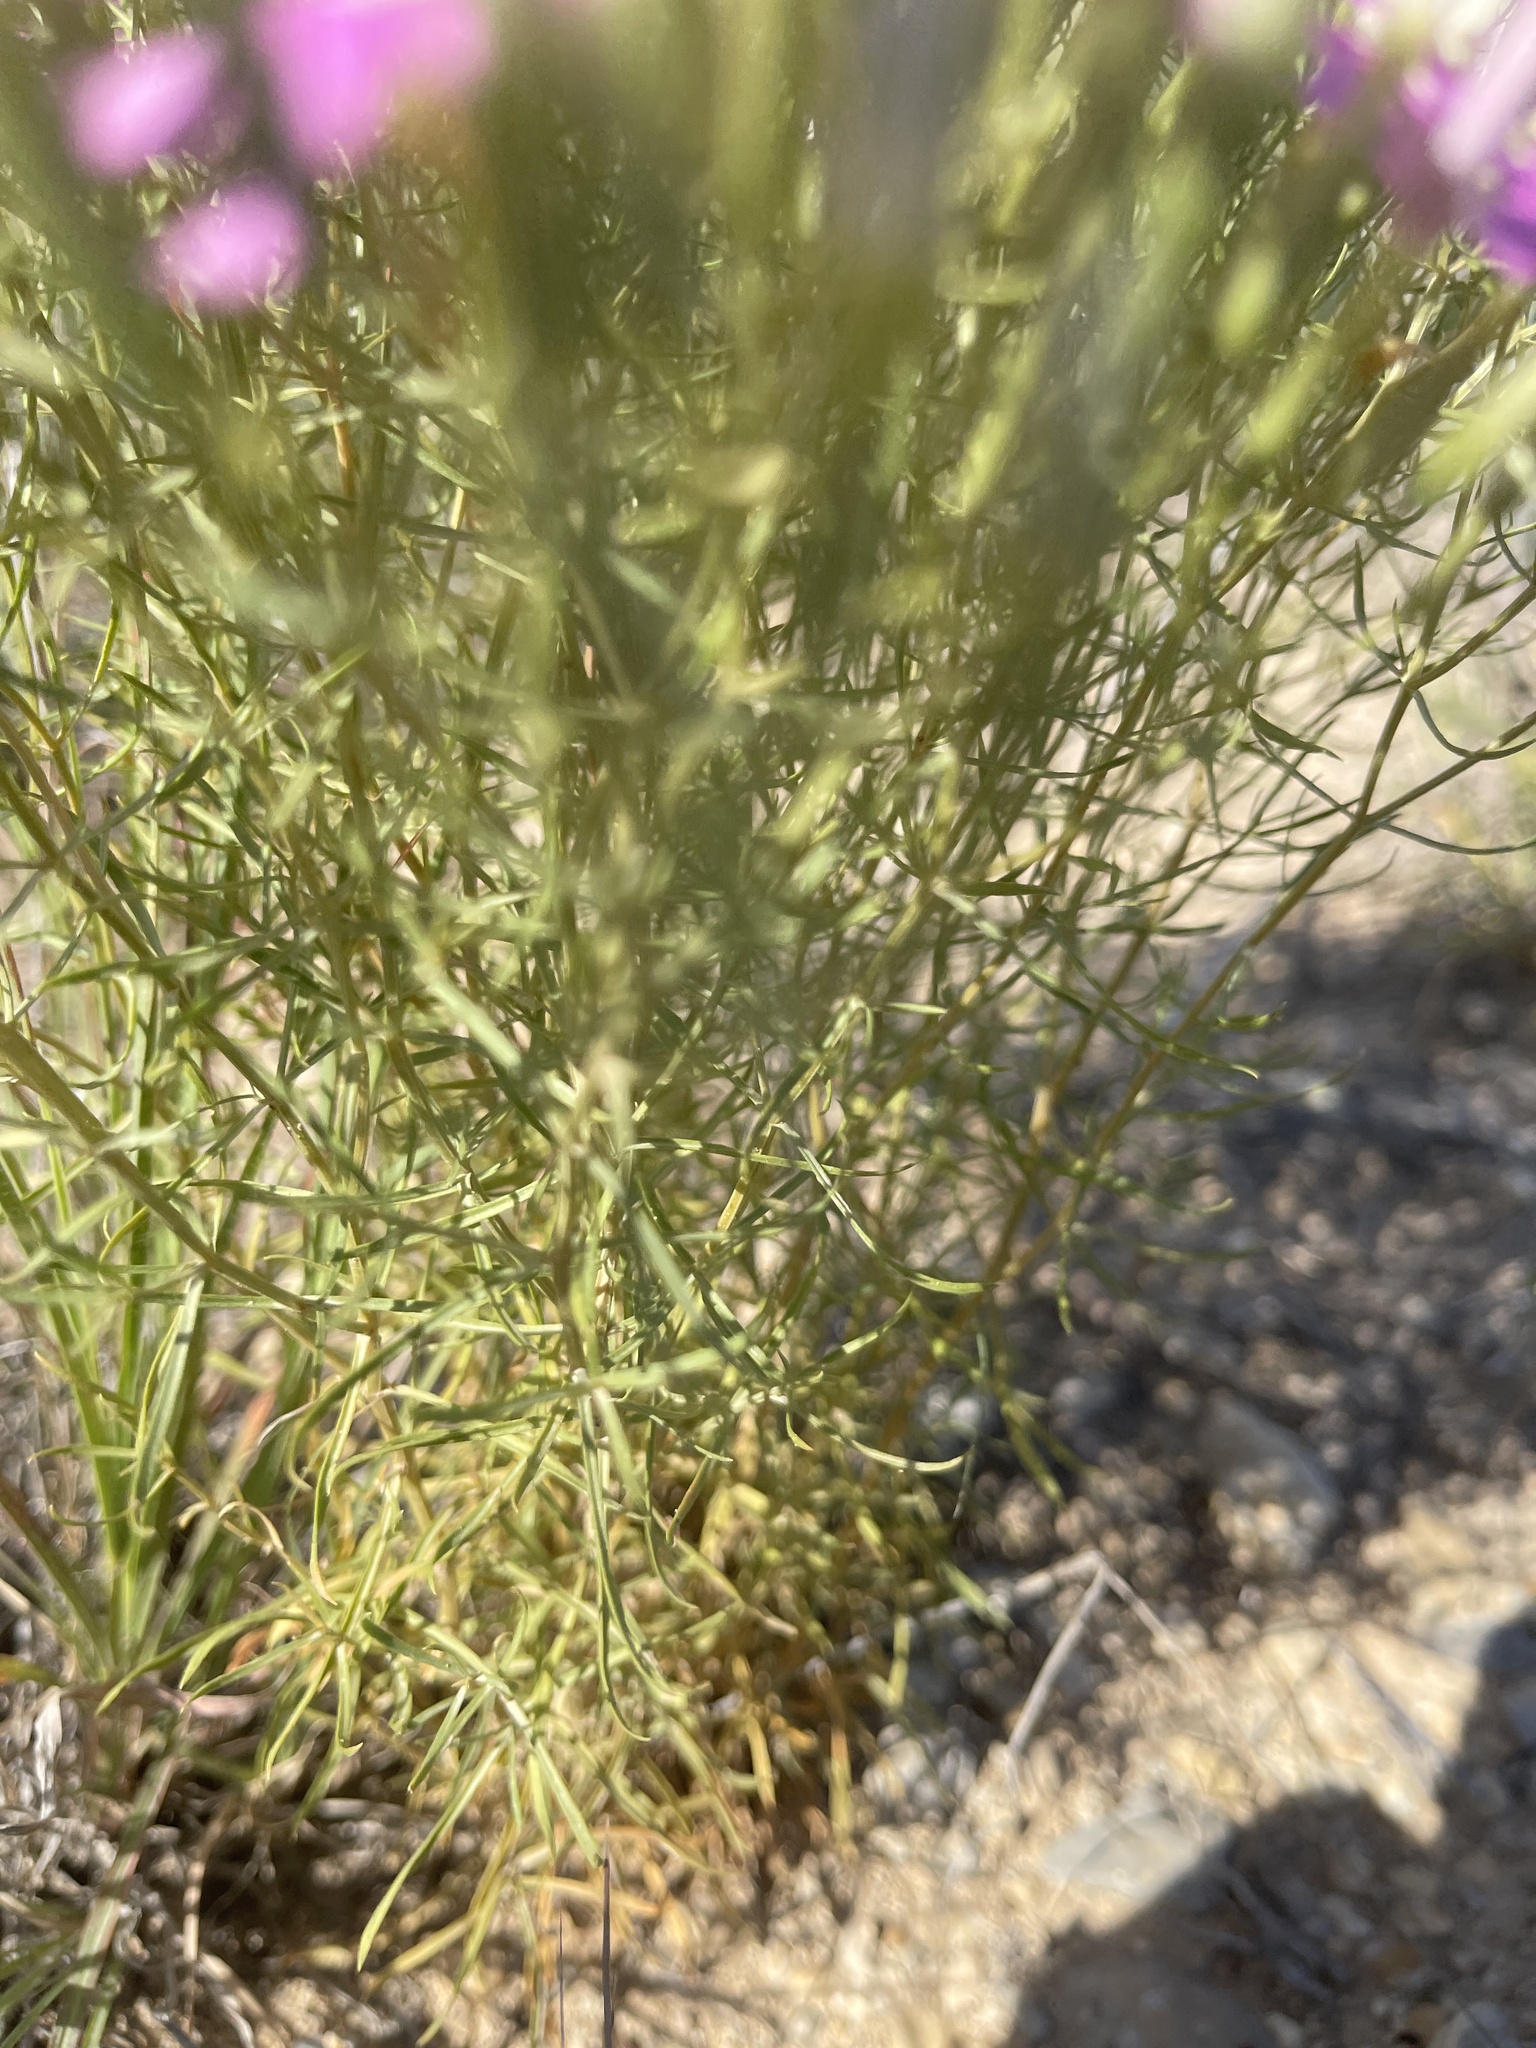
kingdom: Plantae
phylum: Tracheophyta
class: Magnoliopsida
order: Gentianales
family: Gentianaceae
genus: Zeltnera
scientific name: Zeltnera beyrichii
